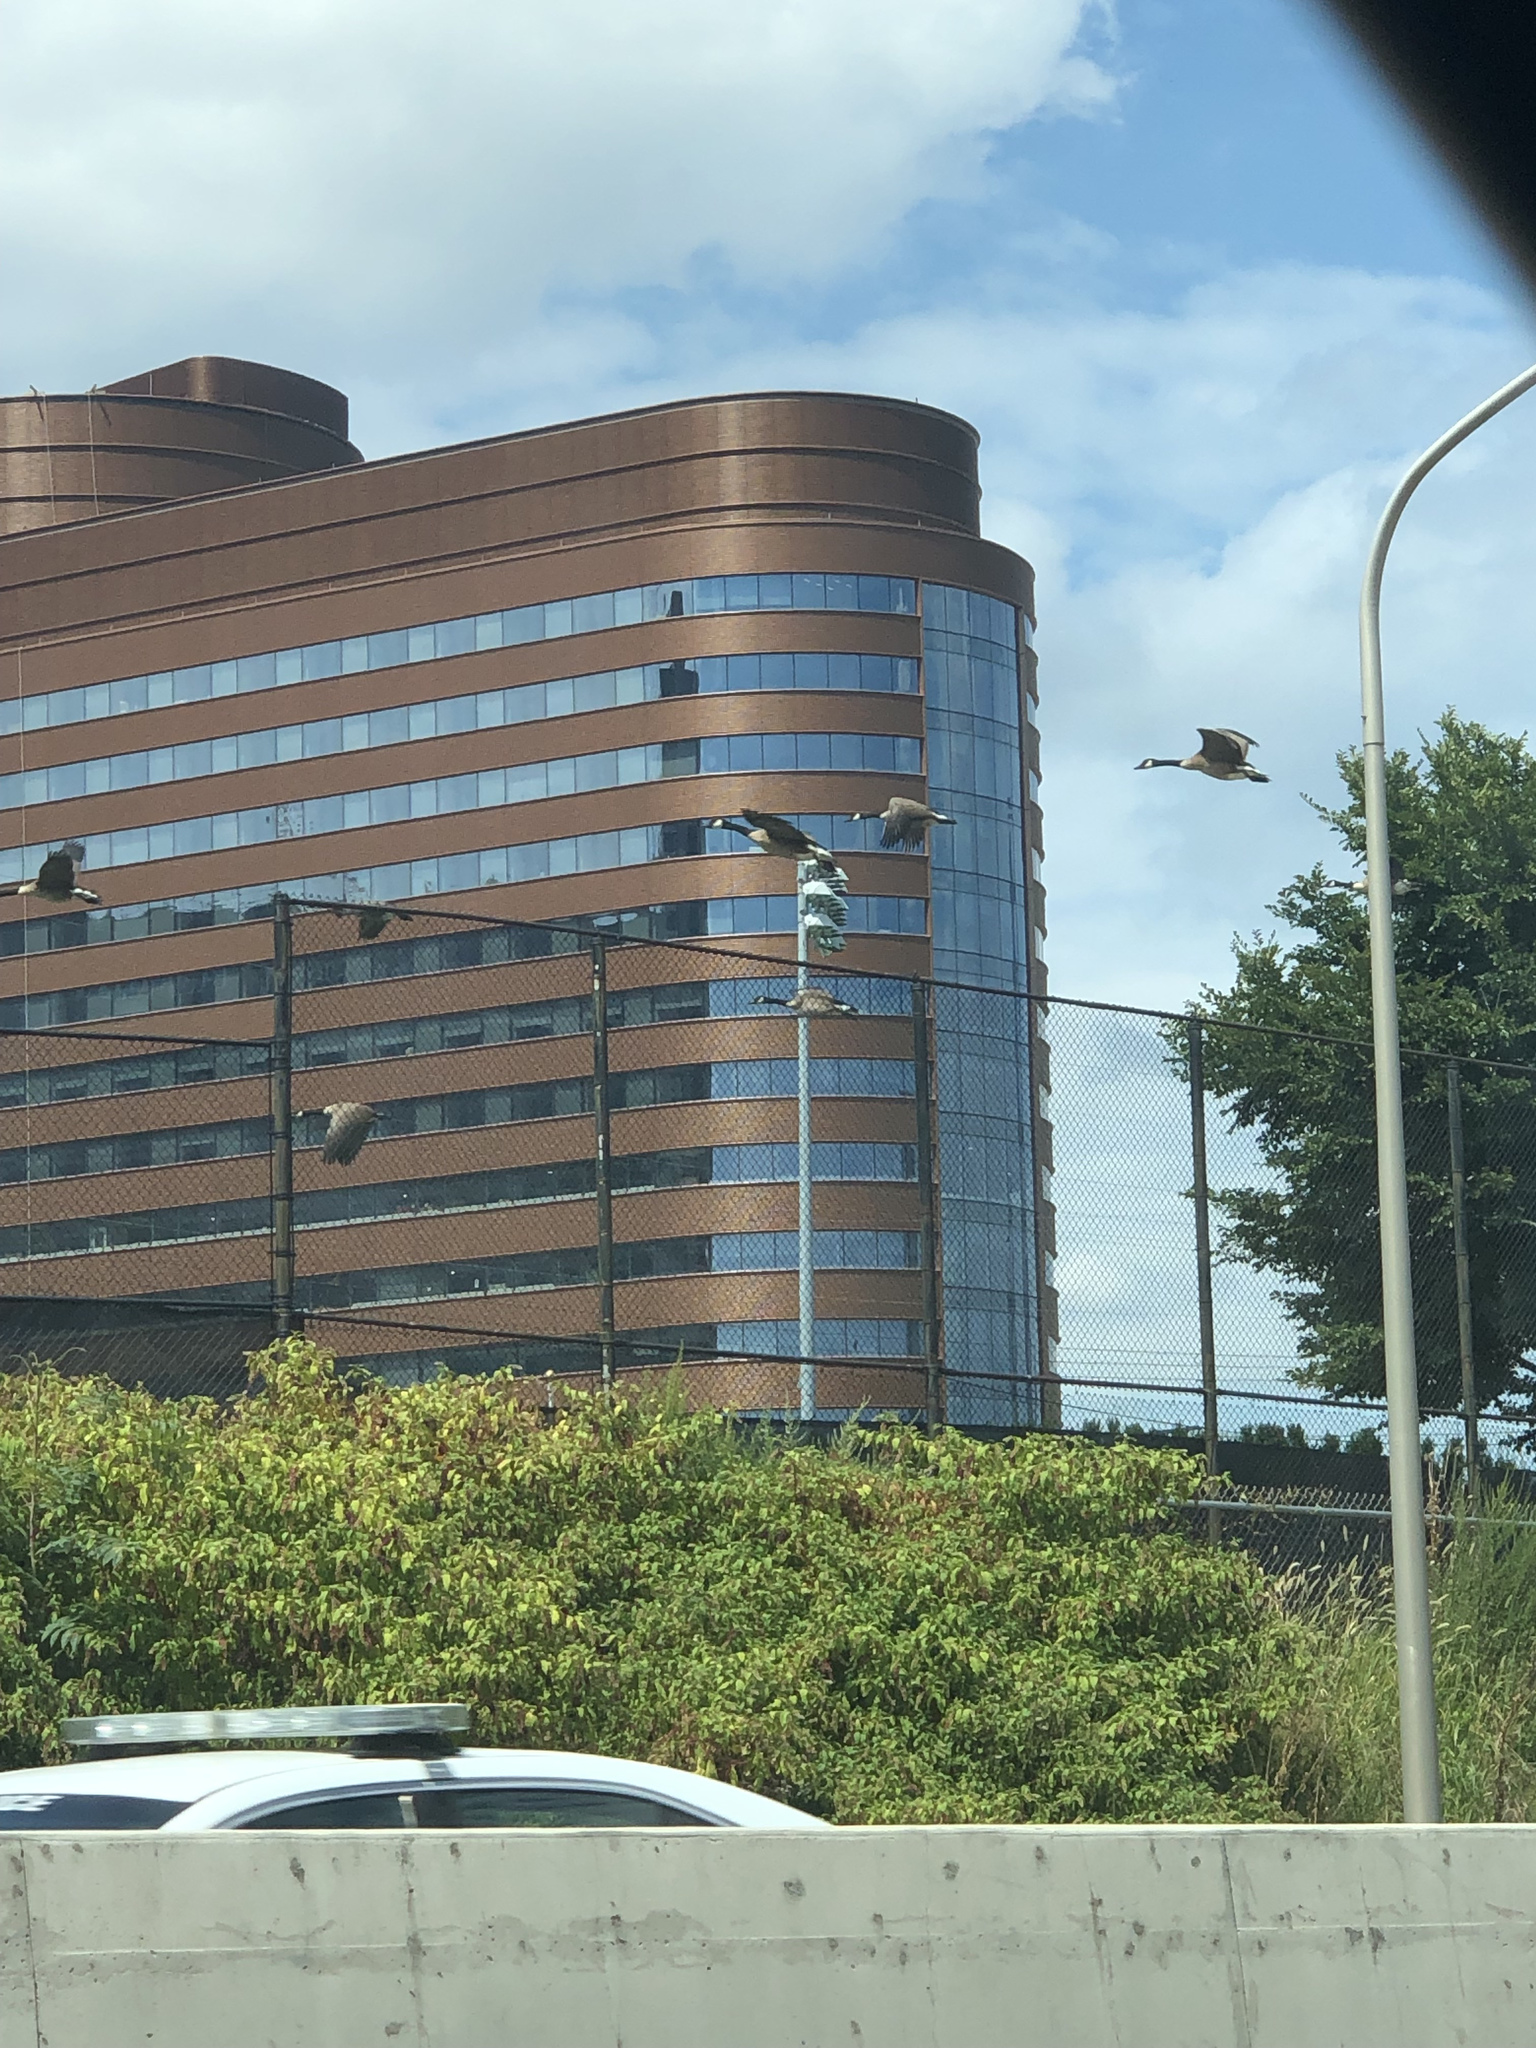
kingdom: Animalia
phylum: Chordata
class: Aves
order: Anseriformes
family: Anatidae
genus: Branta
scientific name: Branta canadensis
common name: Canada goose
